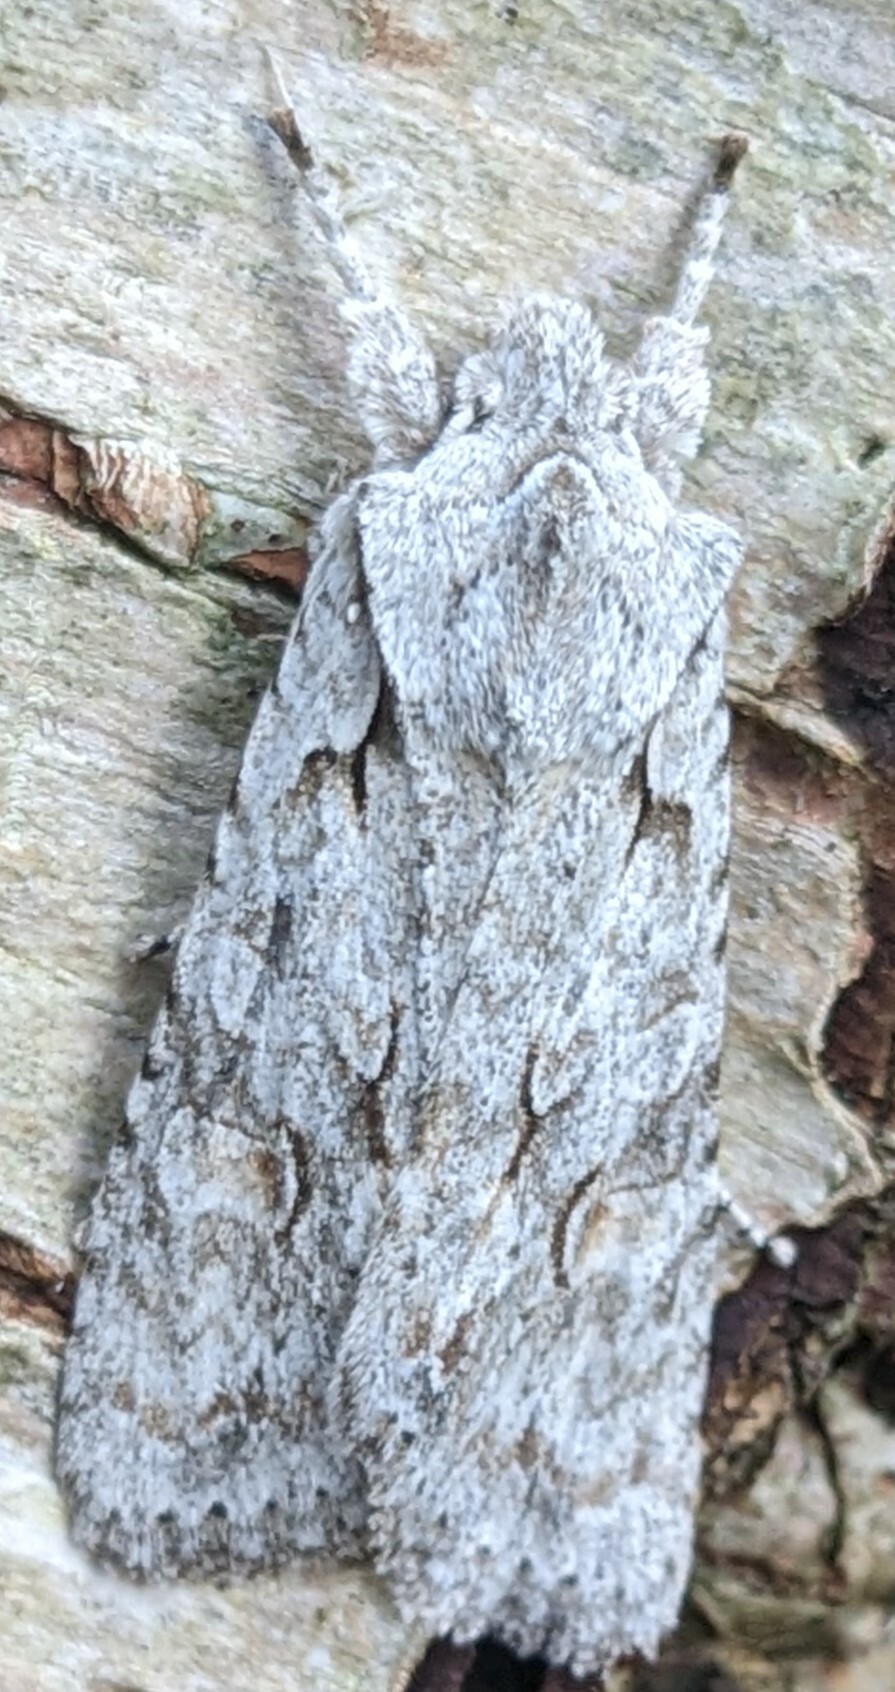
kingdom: Animalia
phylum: Arthropoda
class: Insecta
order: Lepidoptera
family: Noctuidae
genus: Lithophane
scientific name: Lithophane ornitopus
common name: Grey shoulder-knot
